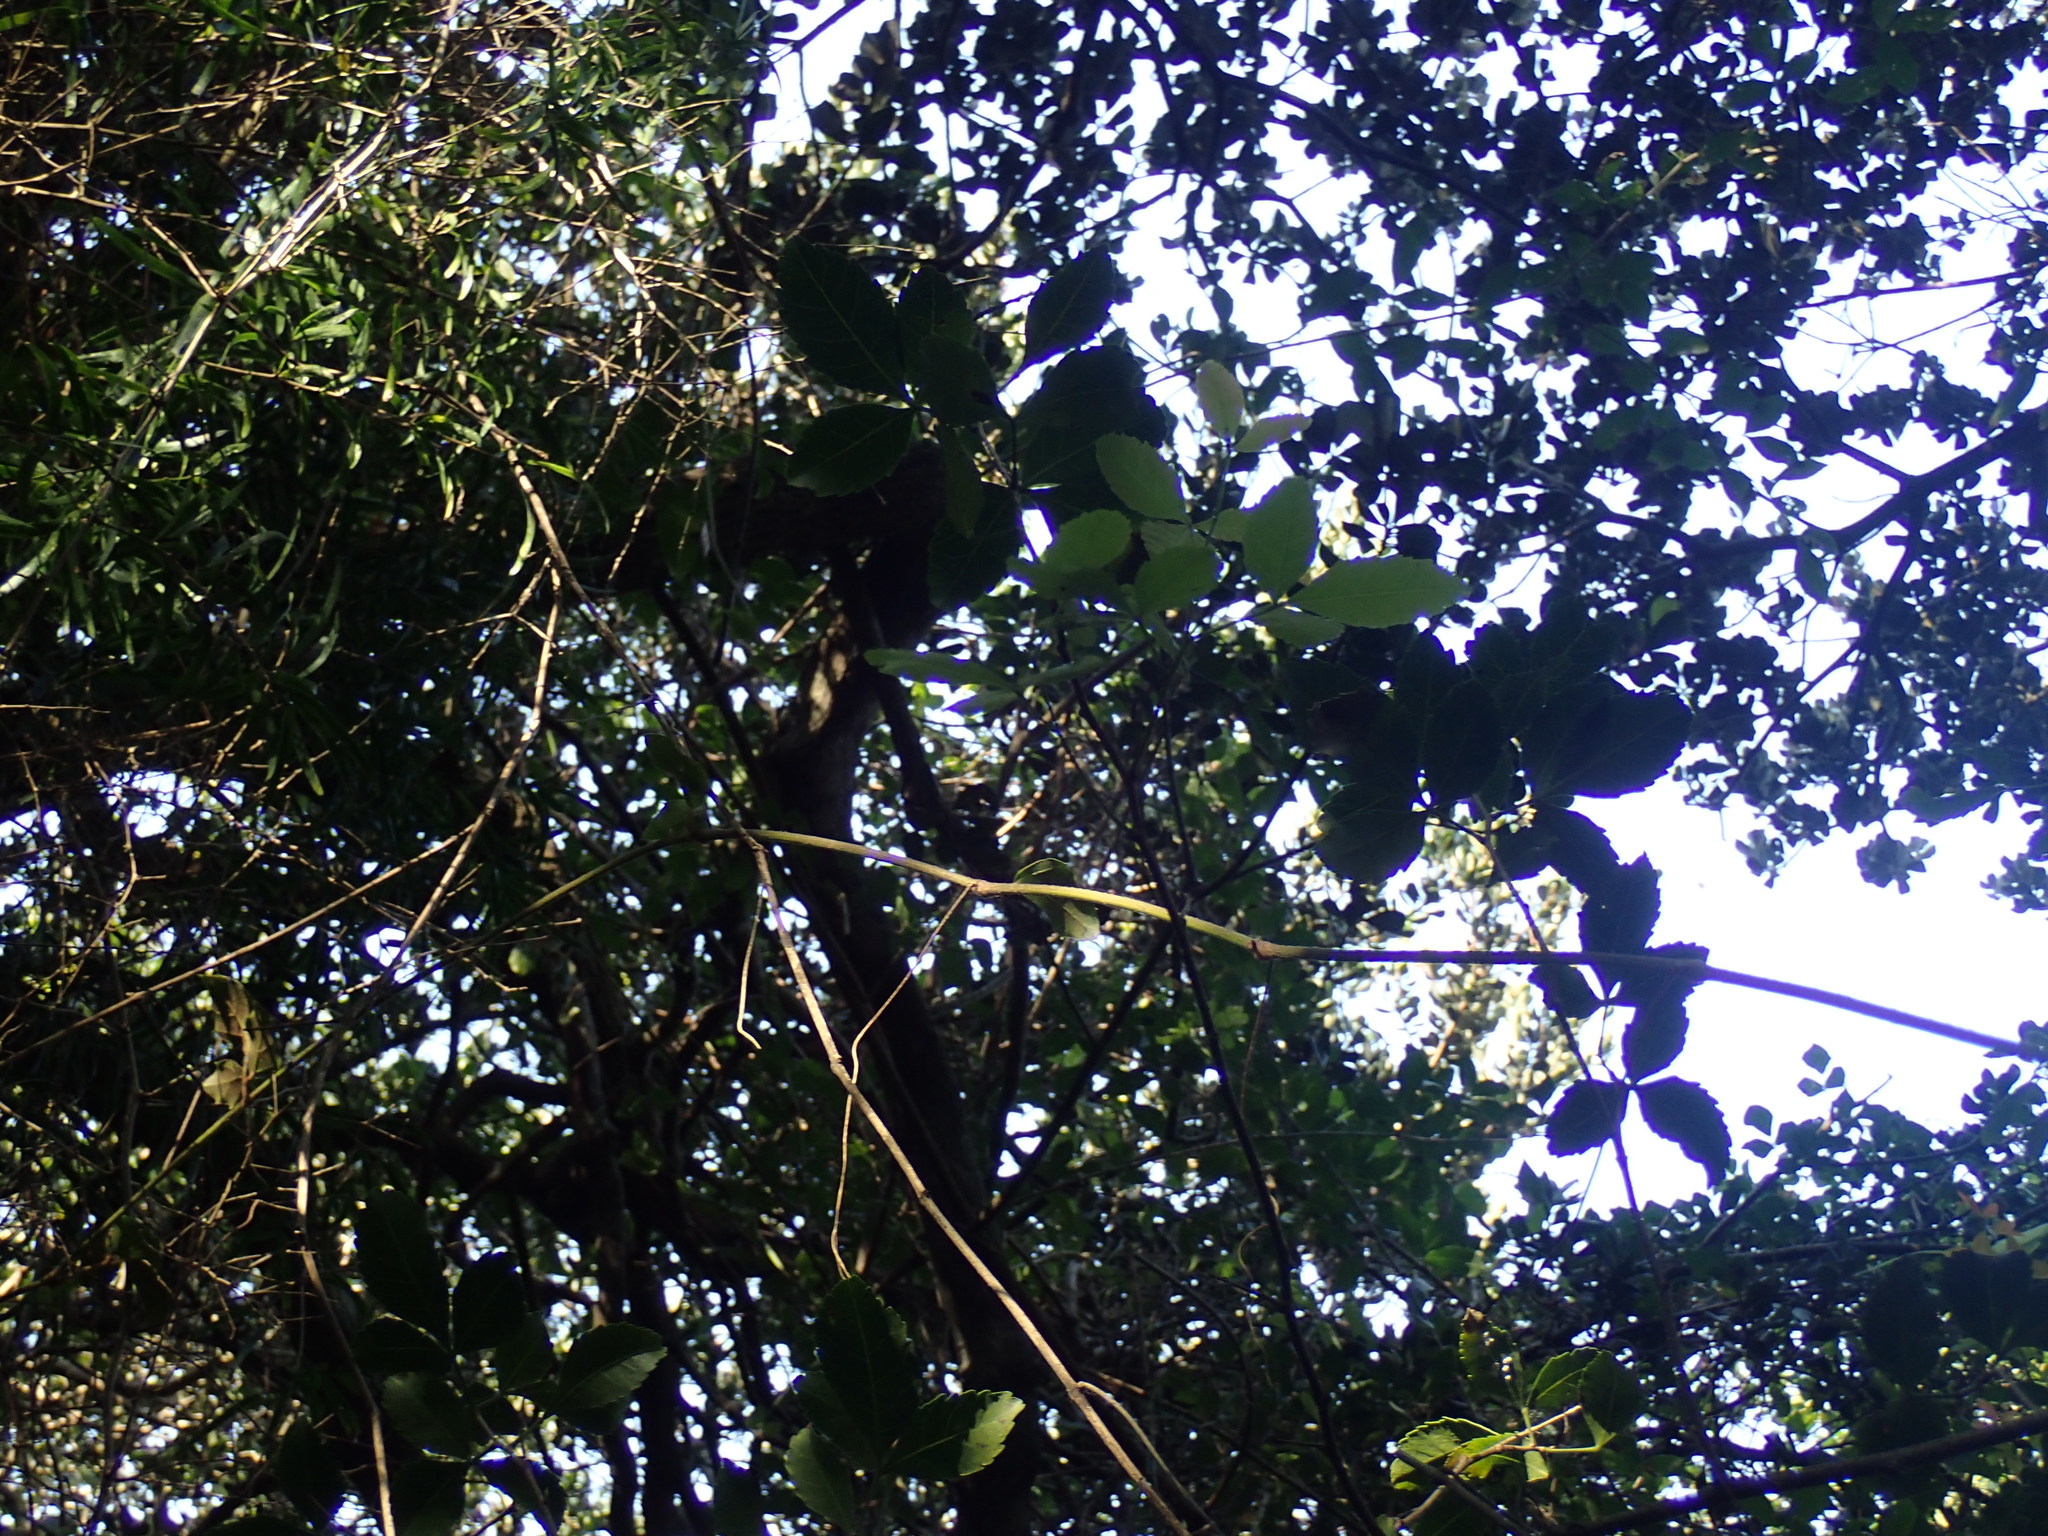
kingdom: Plantae
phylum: Tracheophyta
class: Magnoliopsida
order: Sapindales
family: Anacardiaceae
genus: Searsia
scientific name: Searsia natalensis
